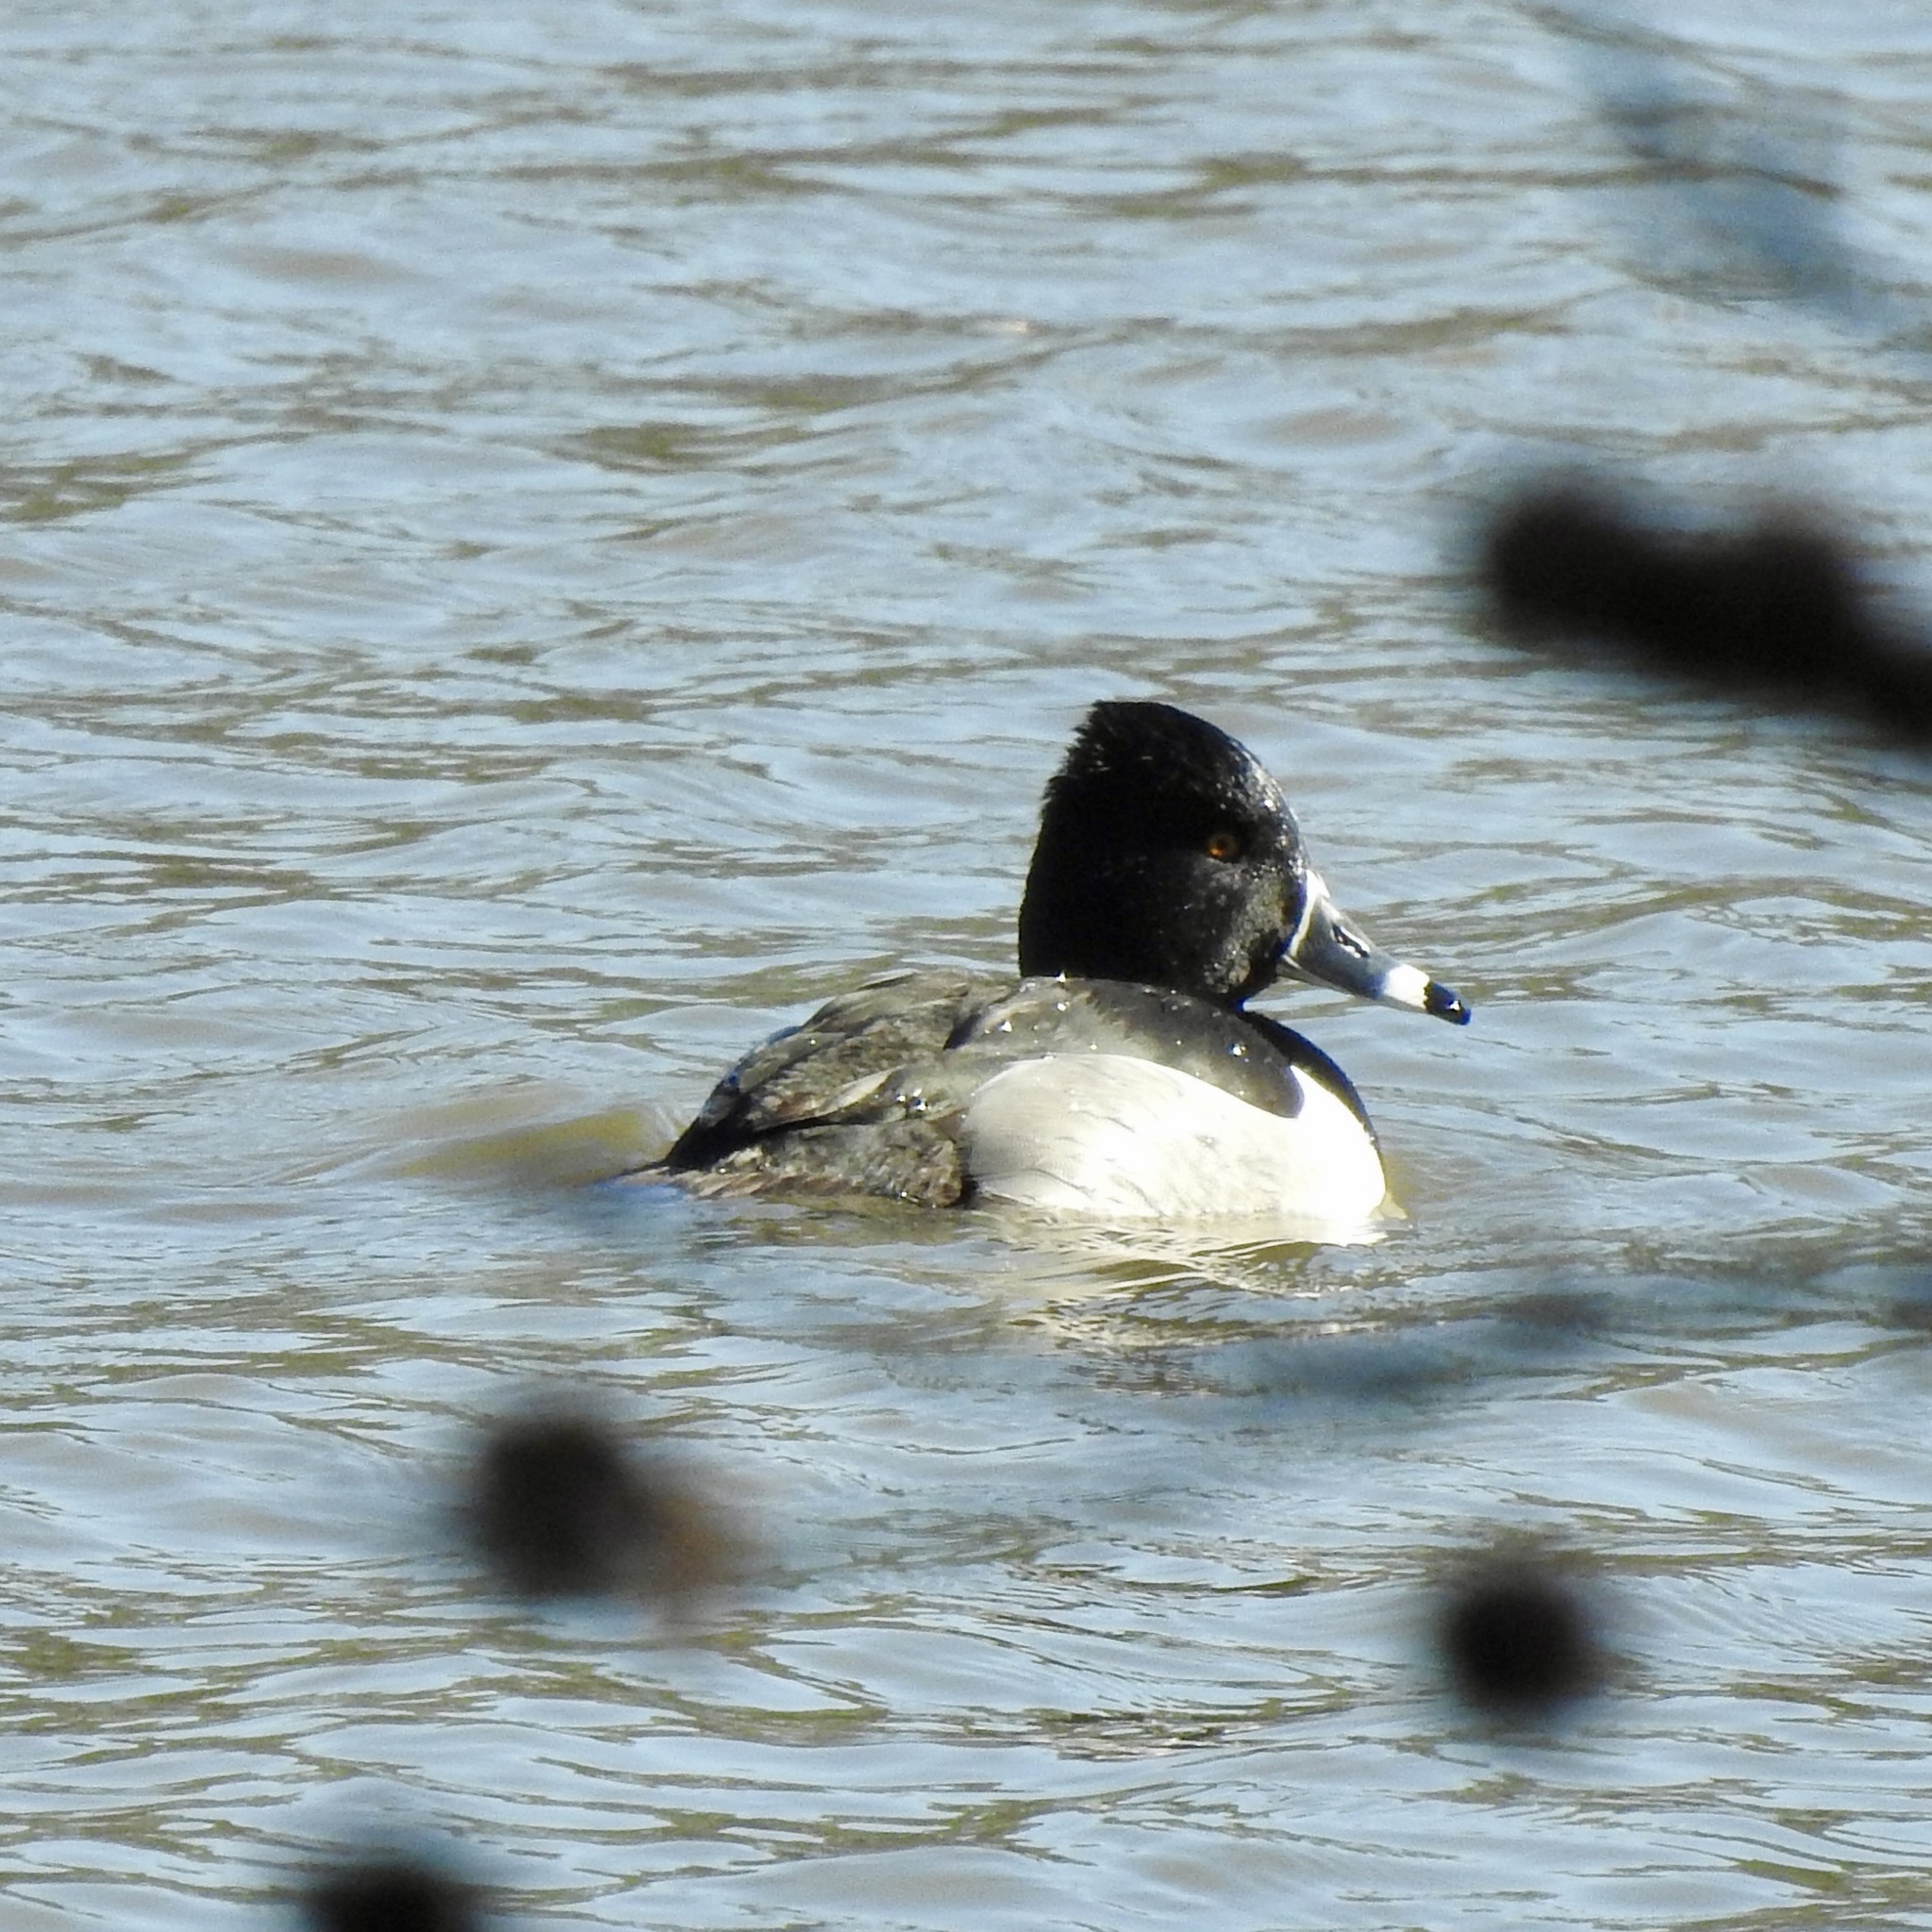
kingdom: Animalia
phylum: Chordata
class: Aves
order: Anseriformes
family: Anatidae
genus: Aythya
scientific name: Aythya collaris
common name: Ring-necked duck
